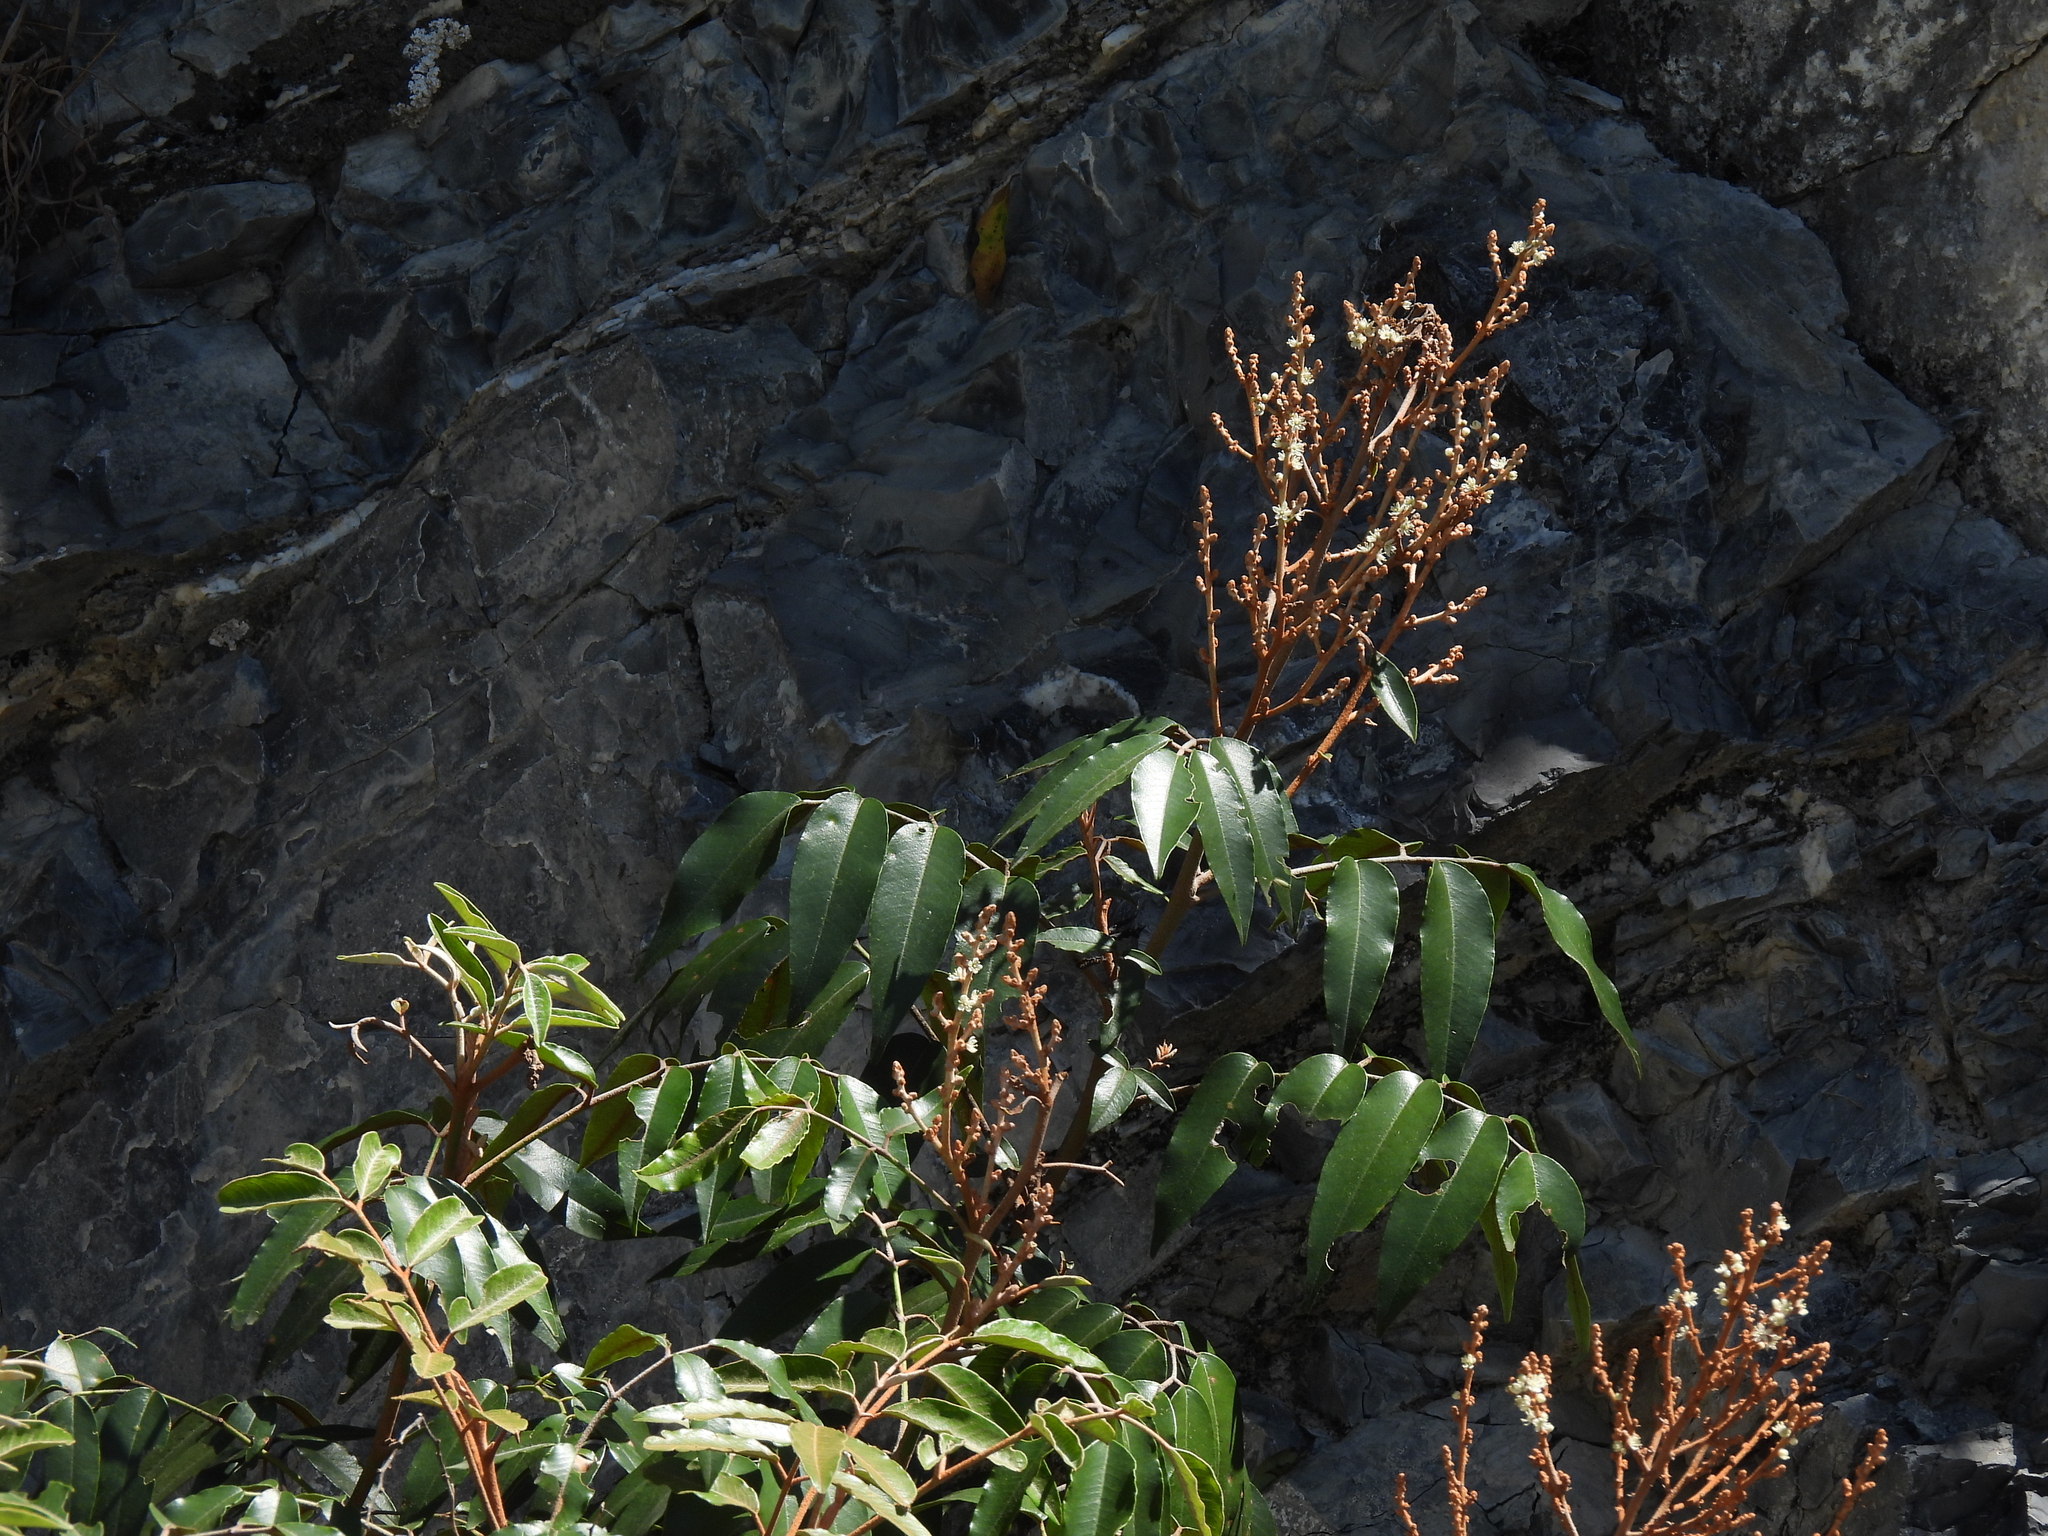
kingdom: Plantae
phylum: Tracheophyta
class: Magnoliopsida
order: Sapindales
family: Rutaceae
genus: Decatropis
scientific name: Decatropis bicolor
